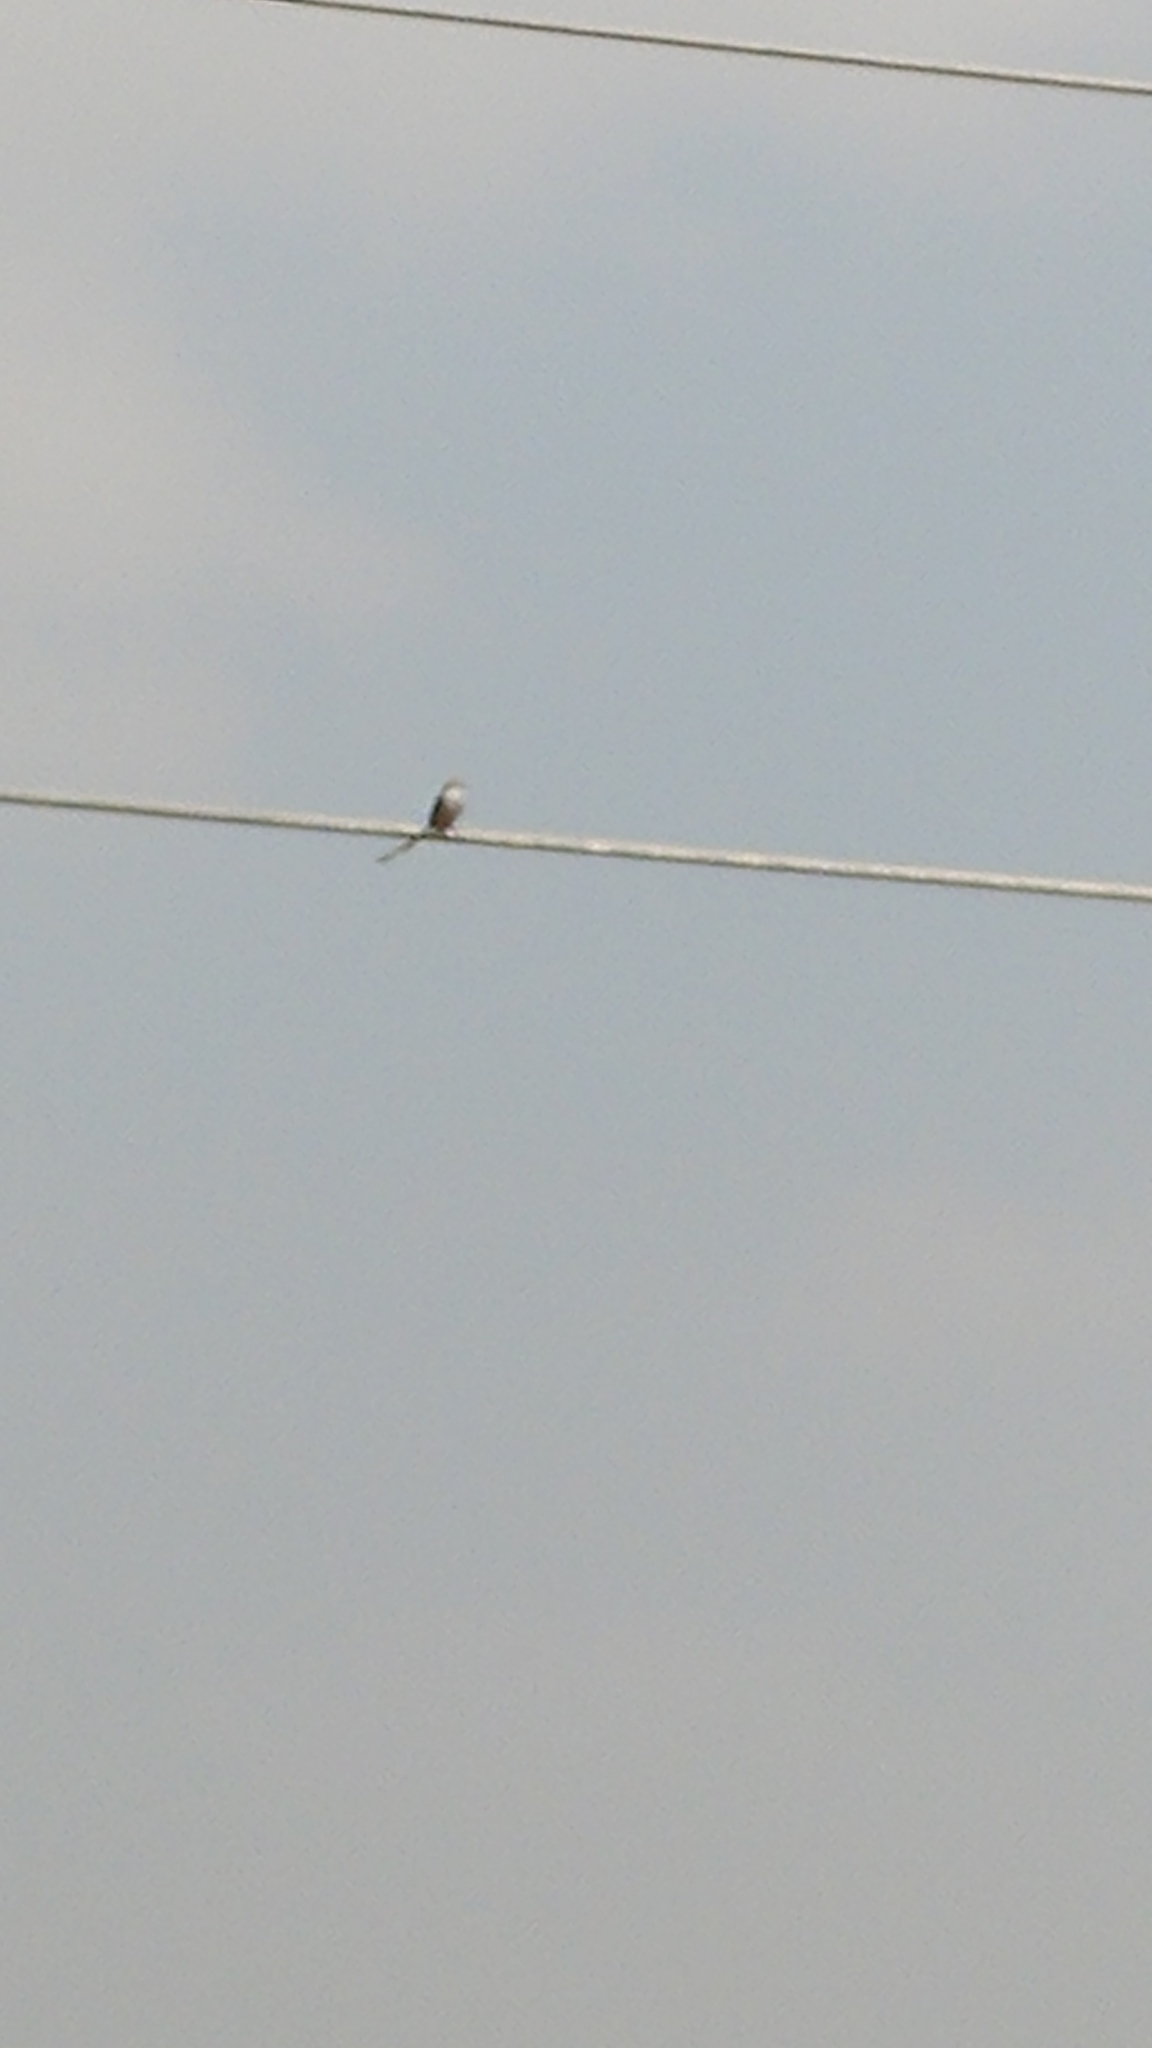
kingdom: Animalia
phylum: Chordata
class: Aves
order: Passeriformes
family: Tyrannidae
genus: Tyrannus
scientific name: Tyrannus forficatus
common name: Scissor-tailed flycatcher
